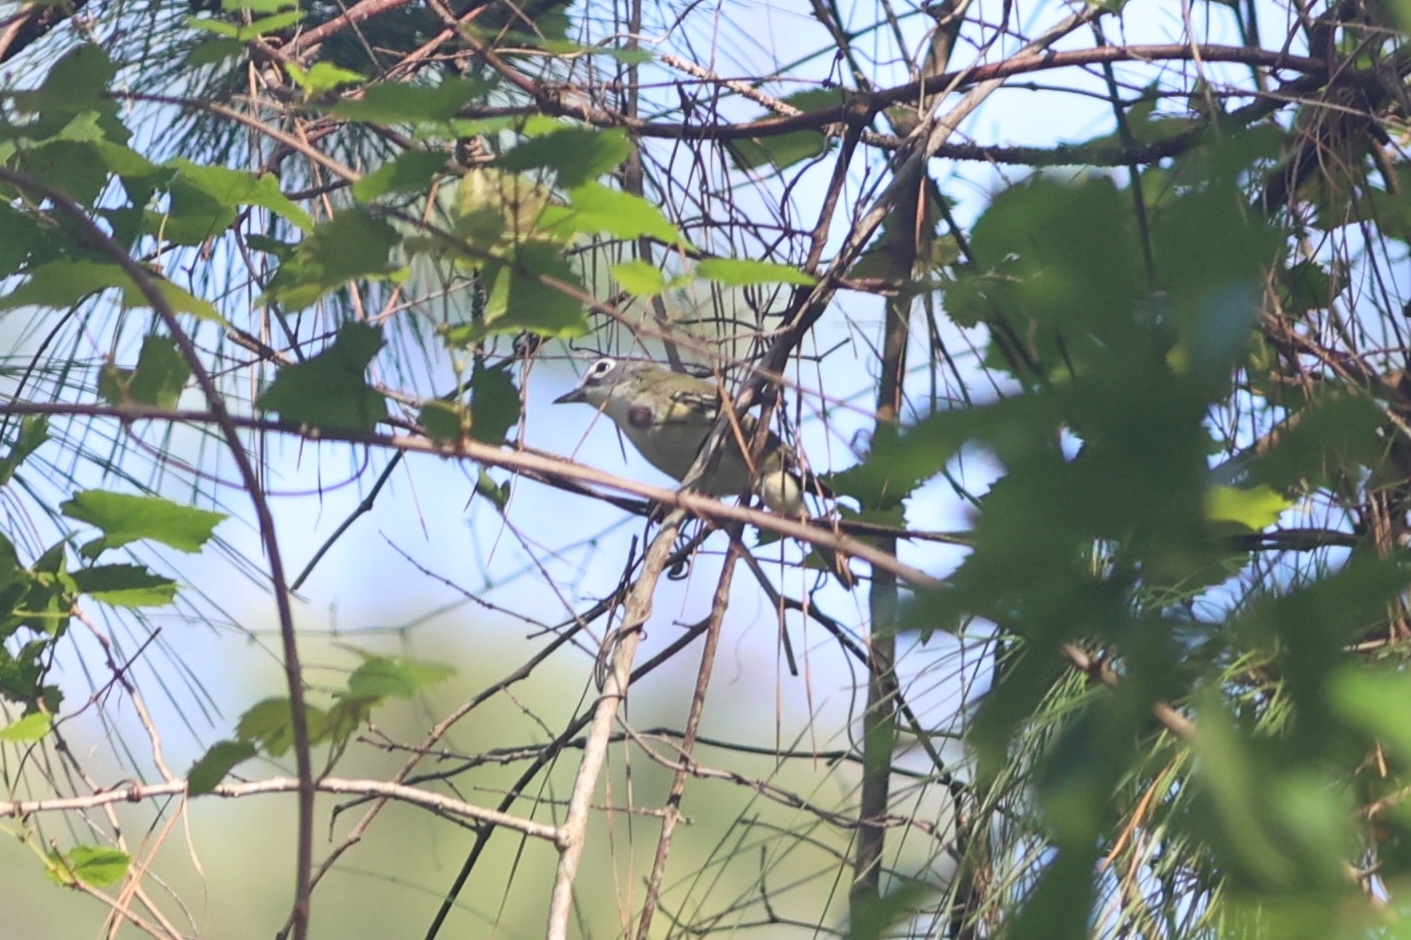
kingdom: Animalia
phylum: Chordata
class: Aves
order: Passeriformes
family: Vireonidae
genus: Vireo
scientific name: Vireo solitarius
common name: Blue-headed vireo
